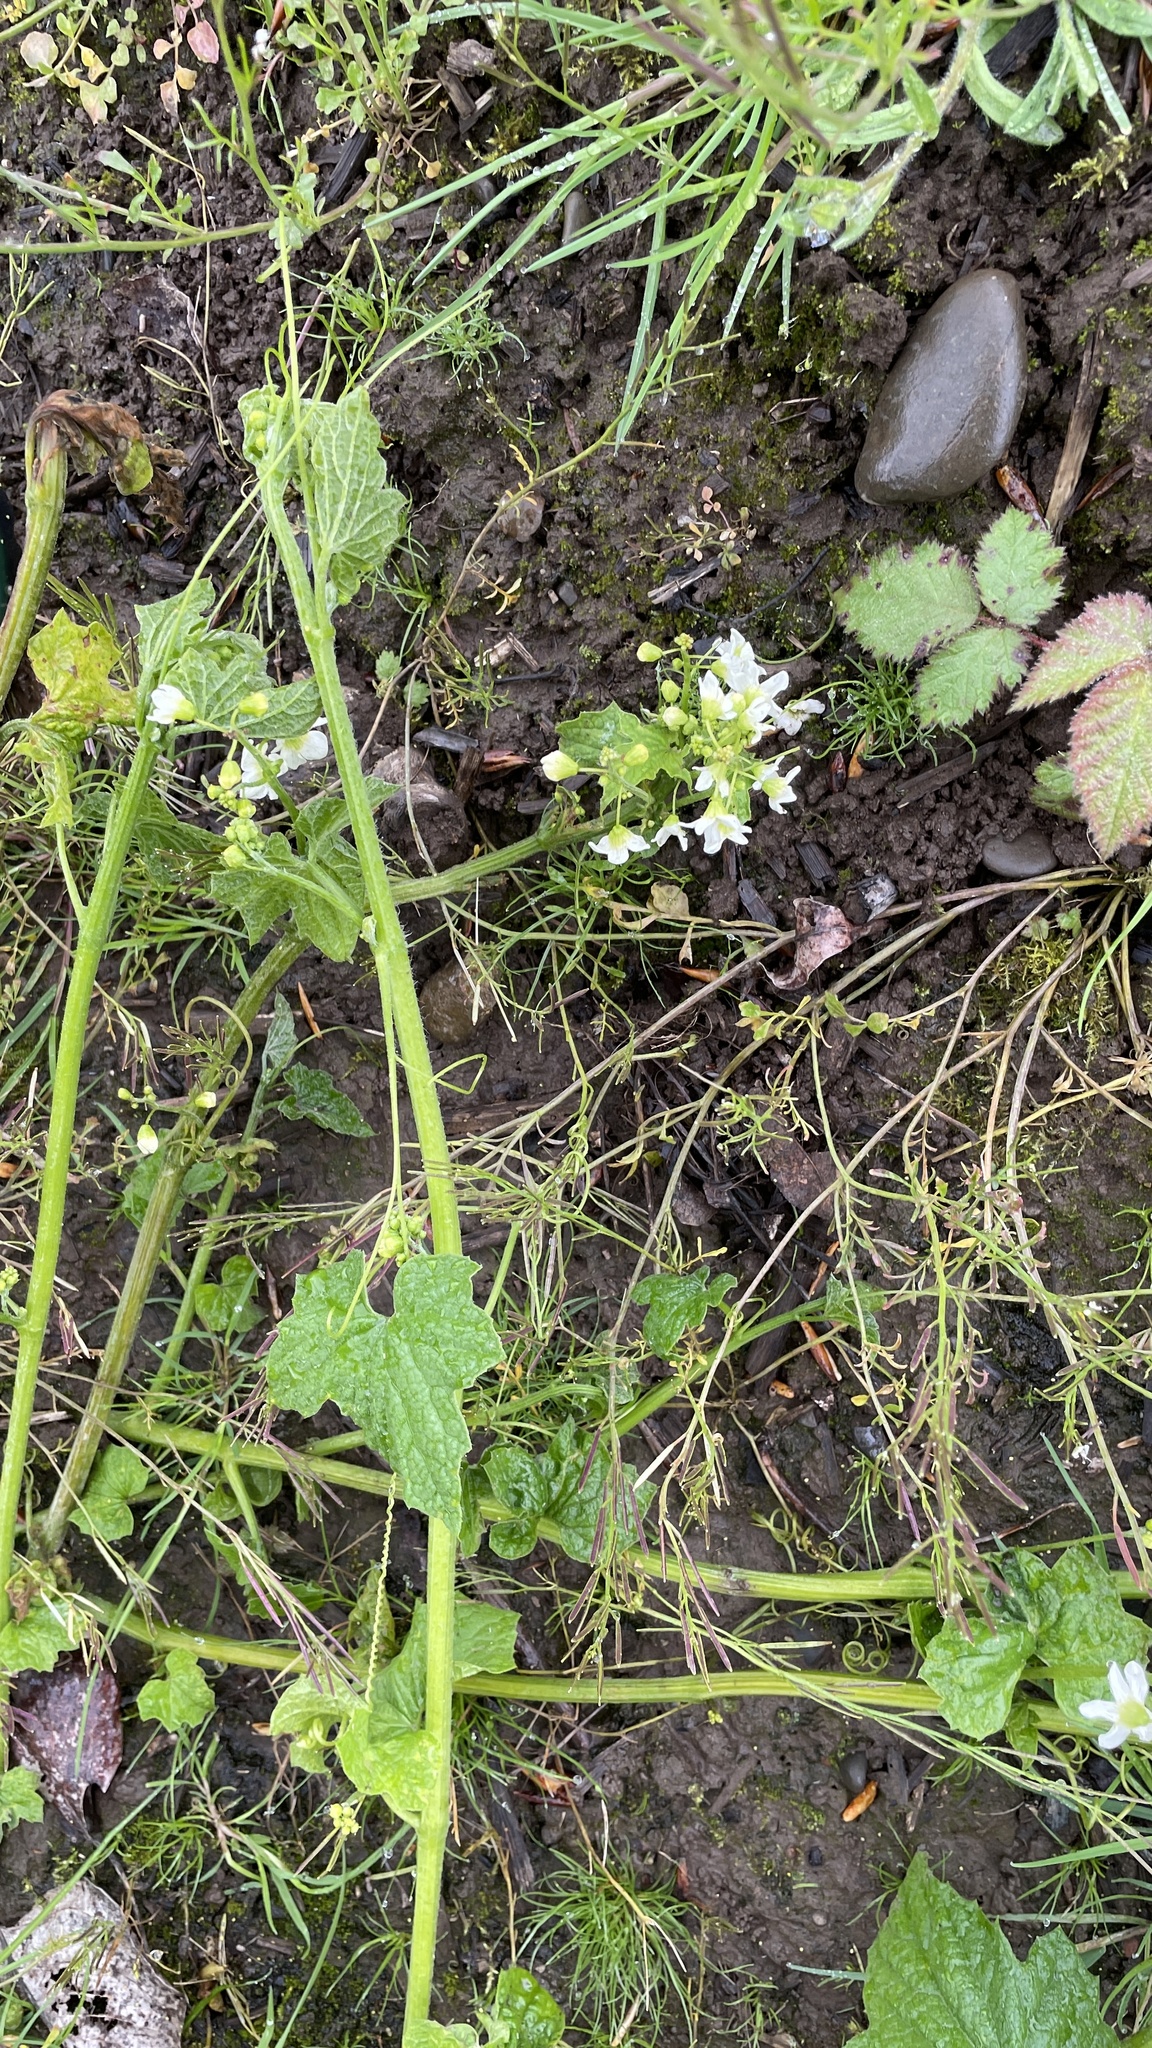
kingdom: Plantae
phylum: Tracheophyta
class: Magnoliopsida
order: Cucurbitales
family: Cucurbitaceae
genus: Marah
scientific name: Marah oregana
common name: Coastal manroot
